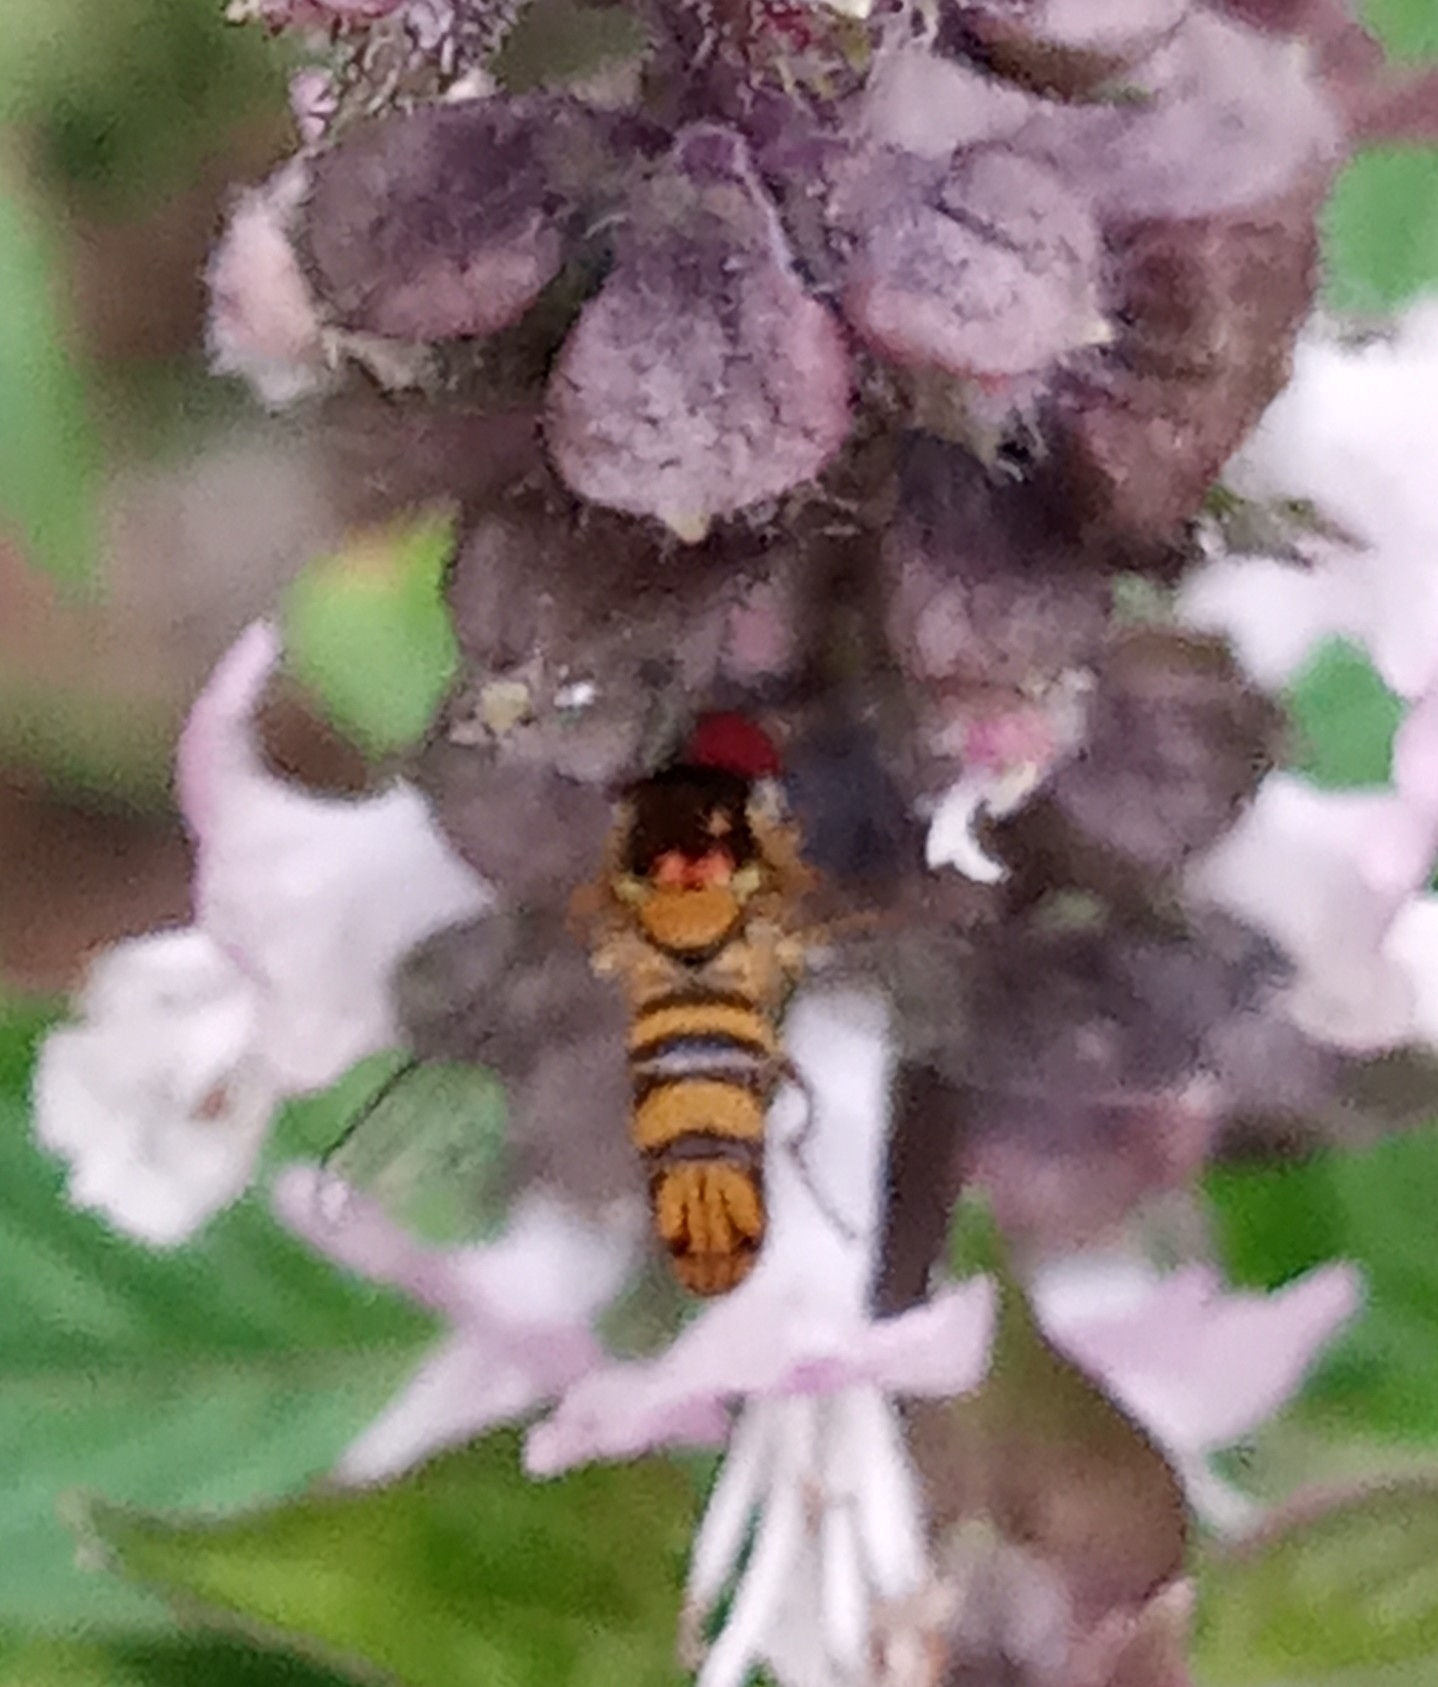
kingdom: Animalia
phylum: Arthropoda
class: Insecta
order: Diptera
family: Syrphidae
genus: Allograpta
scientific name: Allograpta obliqua
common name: Common oblique syrphid
